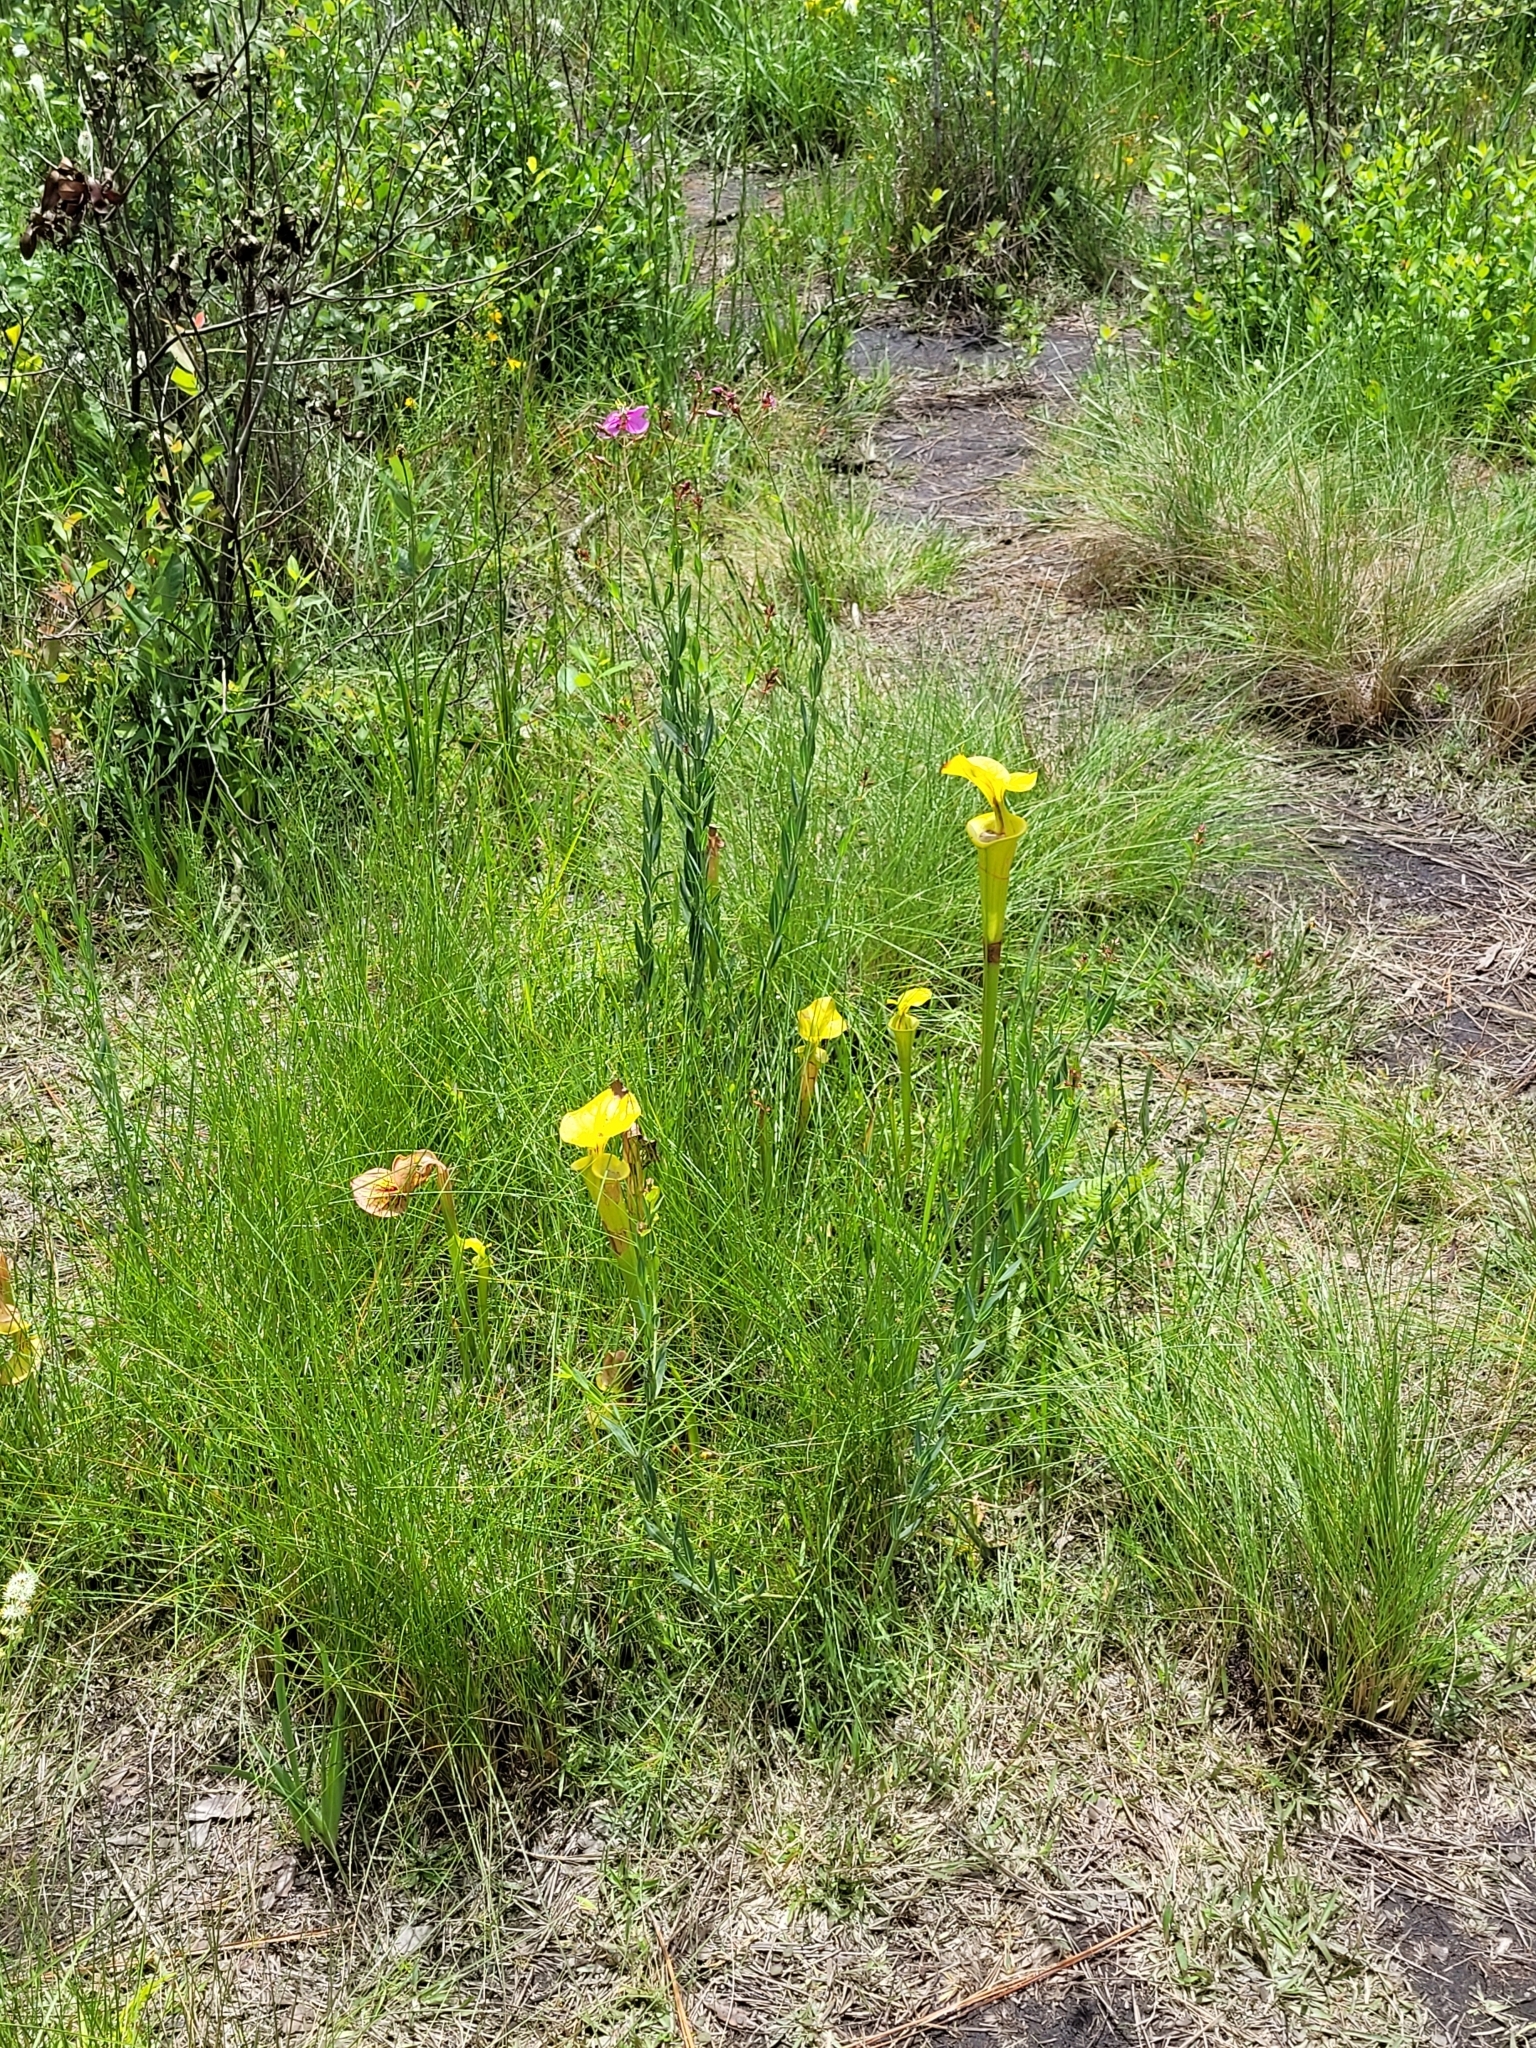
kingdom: Plantae
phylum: Tracheophyta
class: Magnoliopsida
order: Ericales
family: Sarraceniaceae
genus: Sarracenia
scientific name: Sarracenia flava
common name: Trumpets
